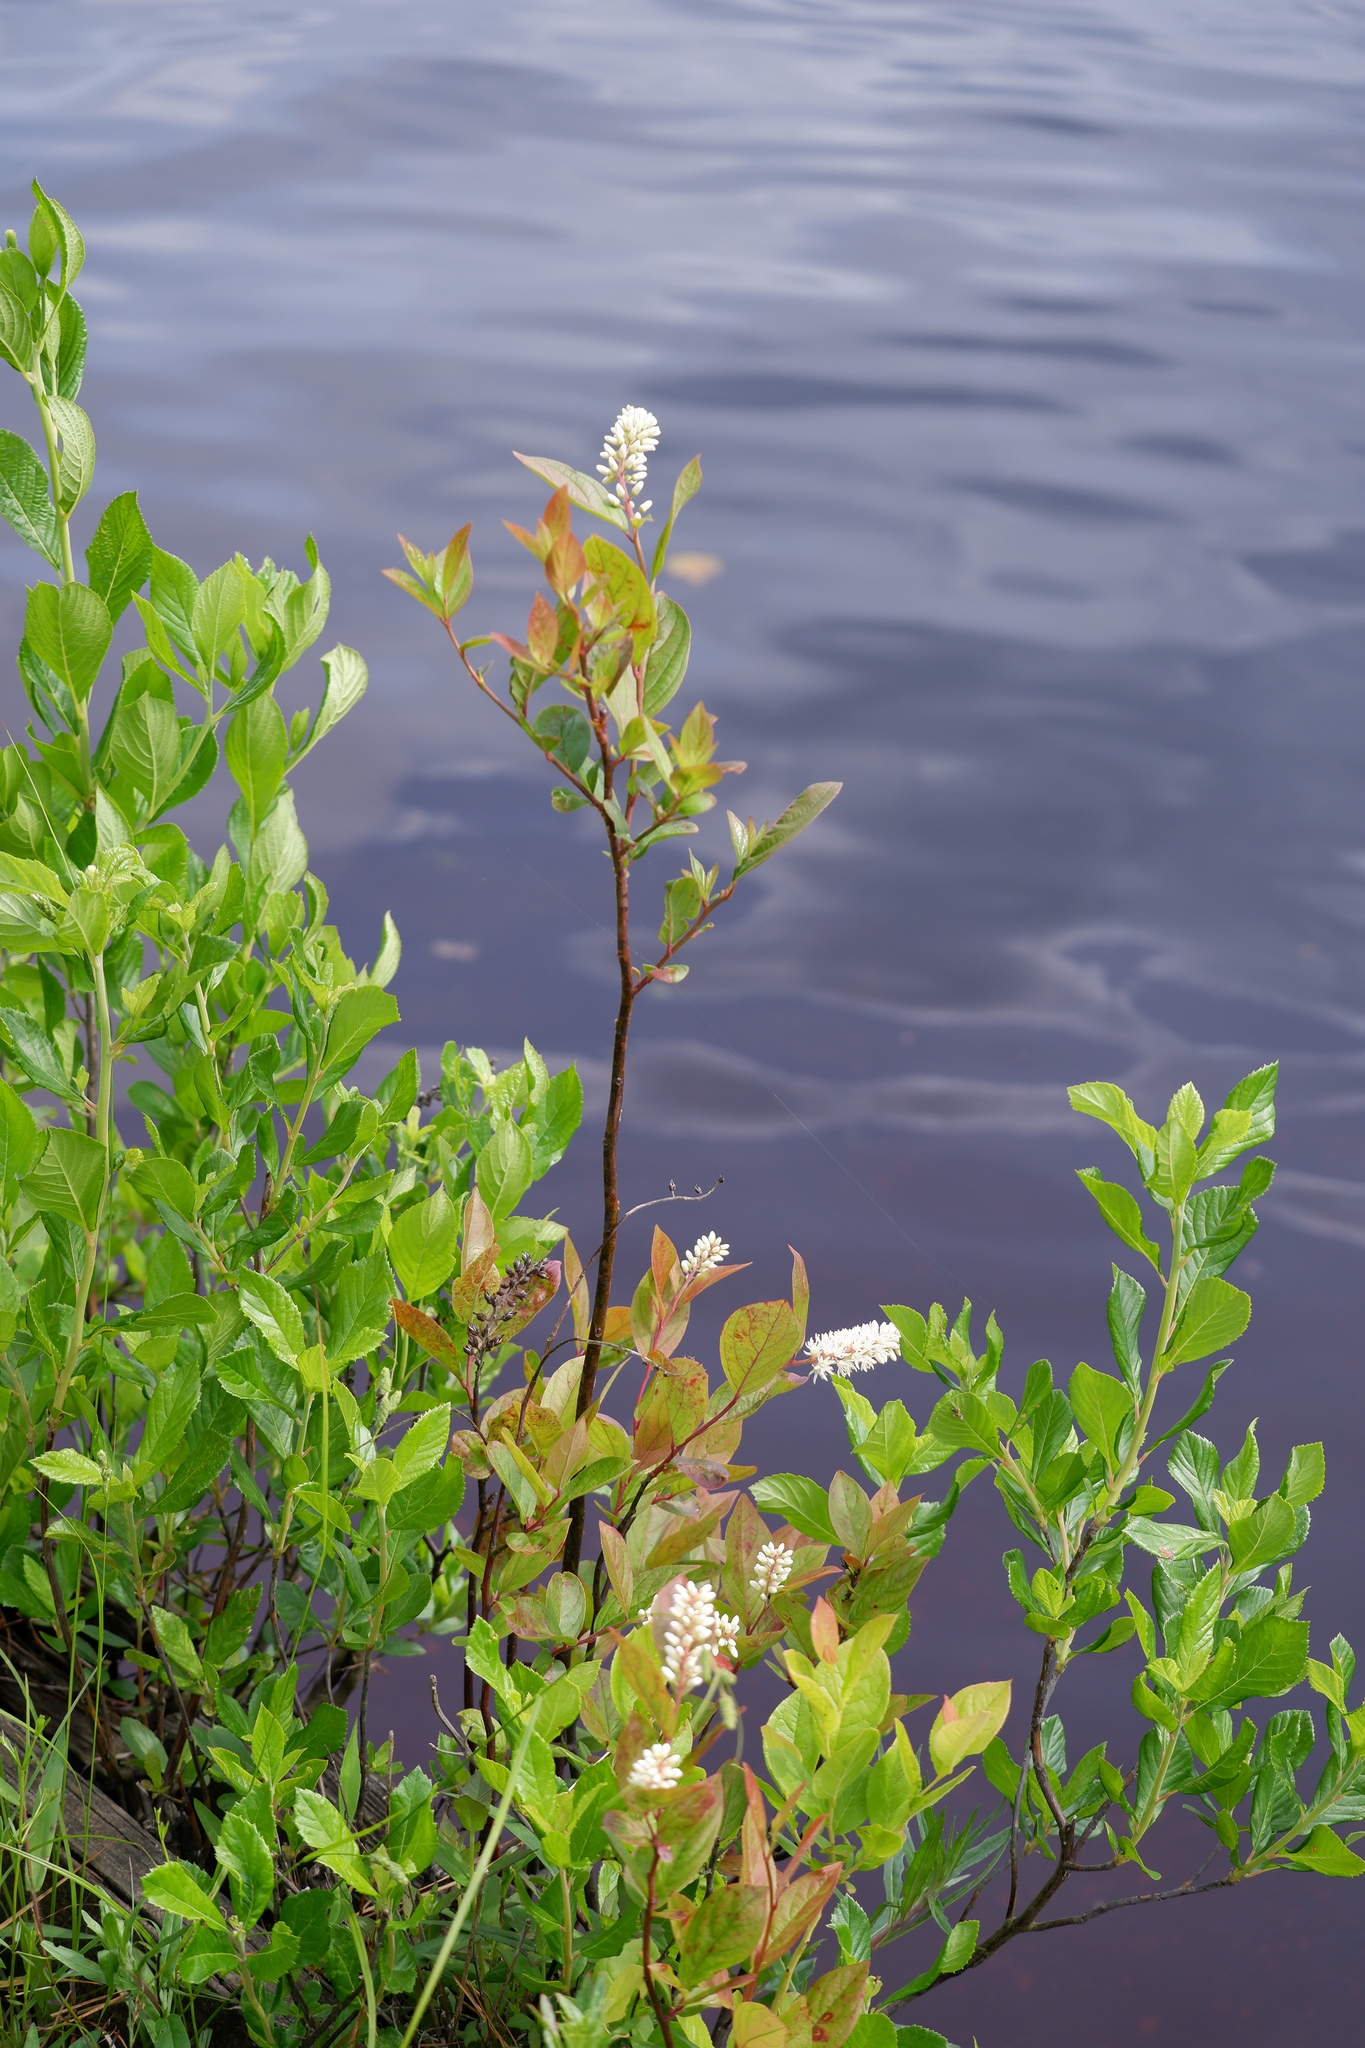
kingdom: Plantae
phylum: Tracheophyta
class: Magnoliopsida
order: Saxifragales
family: Iteaceae
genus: Itea
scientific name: Itea virginica
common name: Sweetspire
